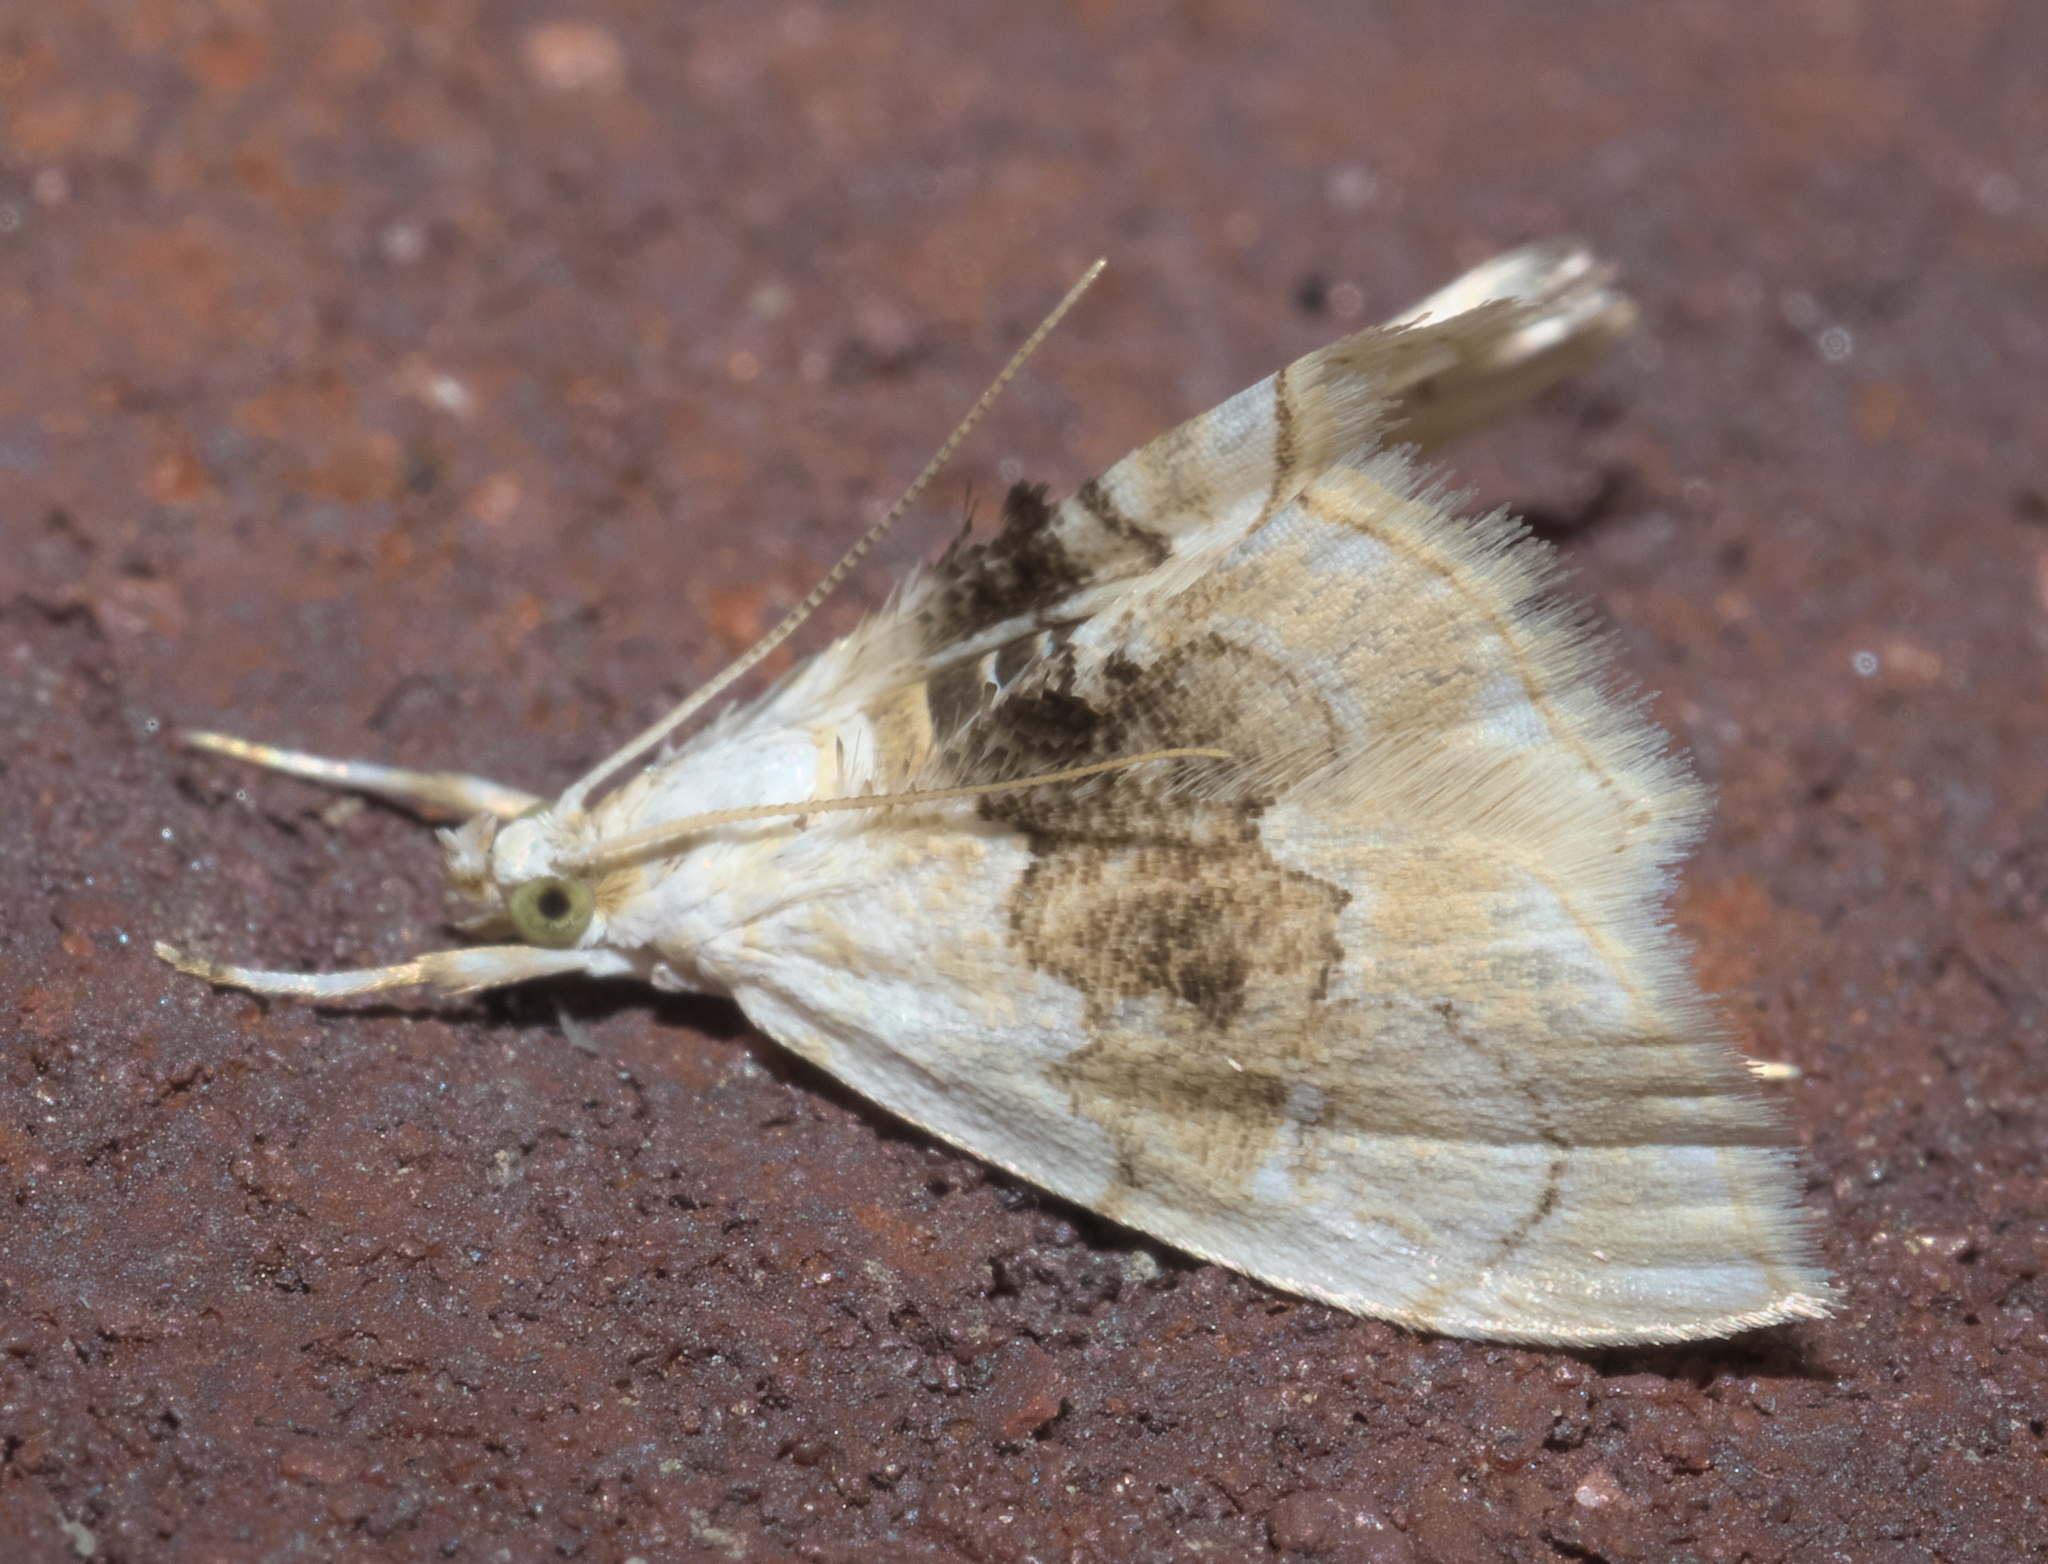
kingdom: Animalia
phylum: Arthropoda
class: Insecta
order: Lepidoptera
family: Crambidae
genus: Lipocosma
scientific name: Lipocosma sicalis
